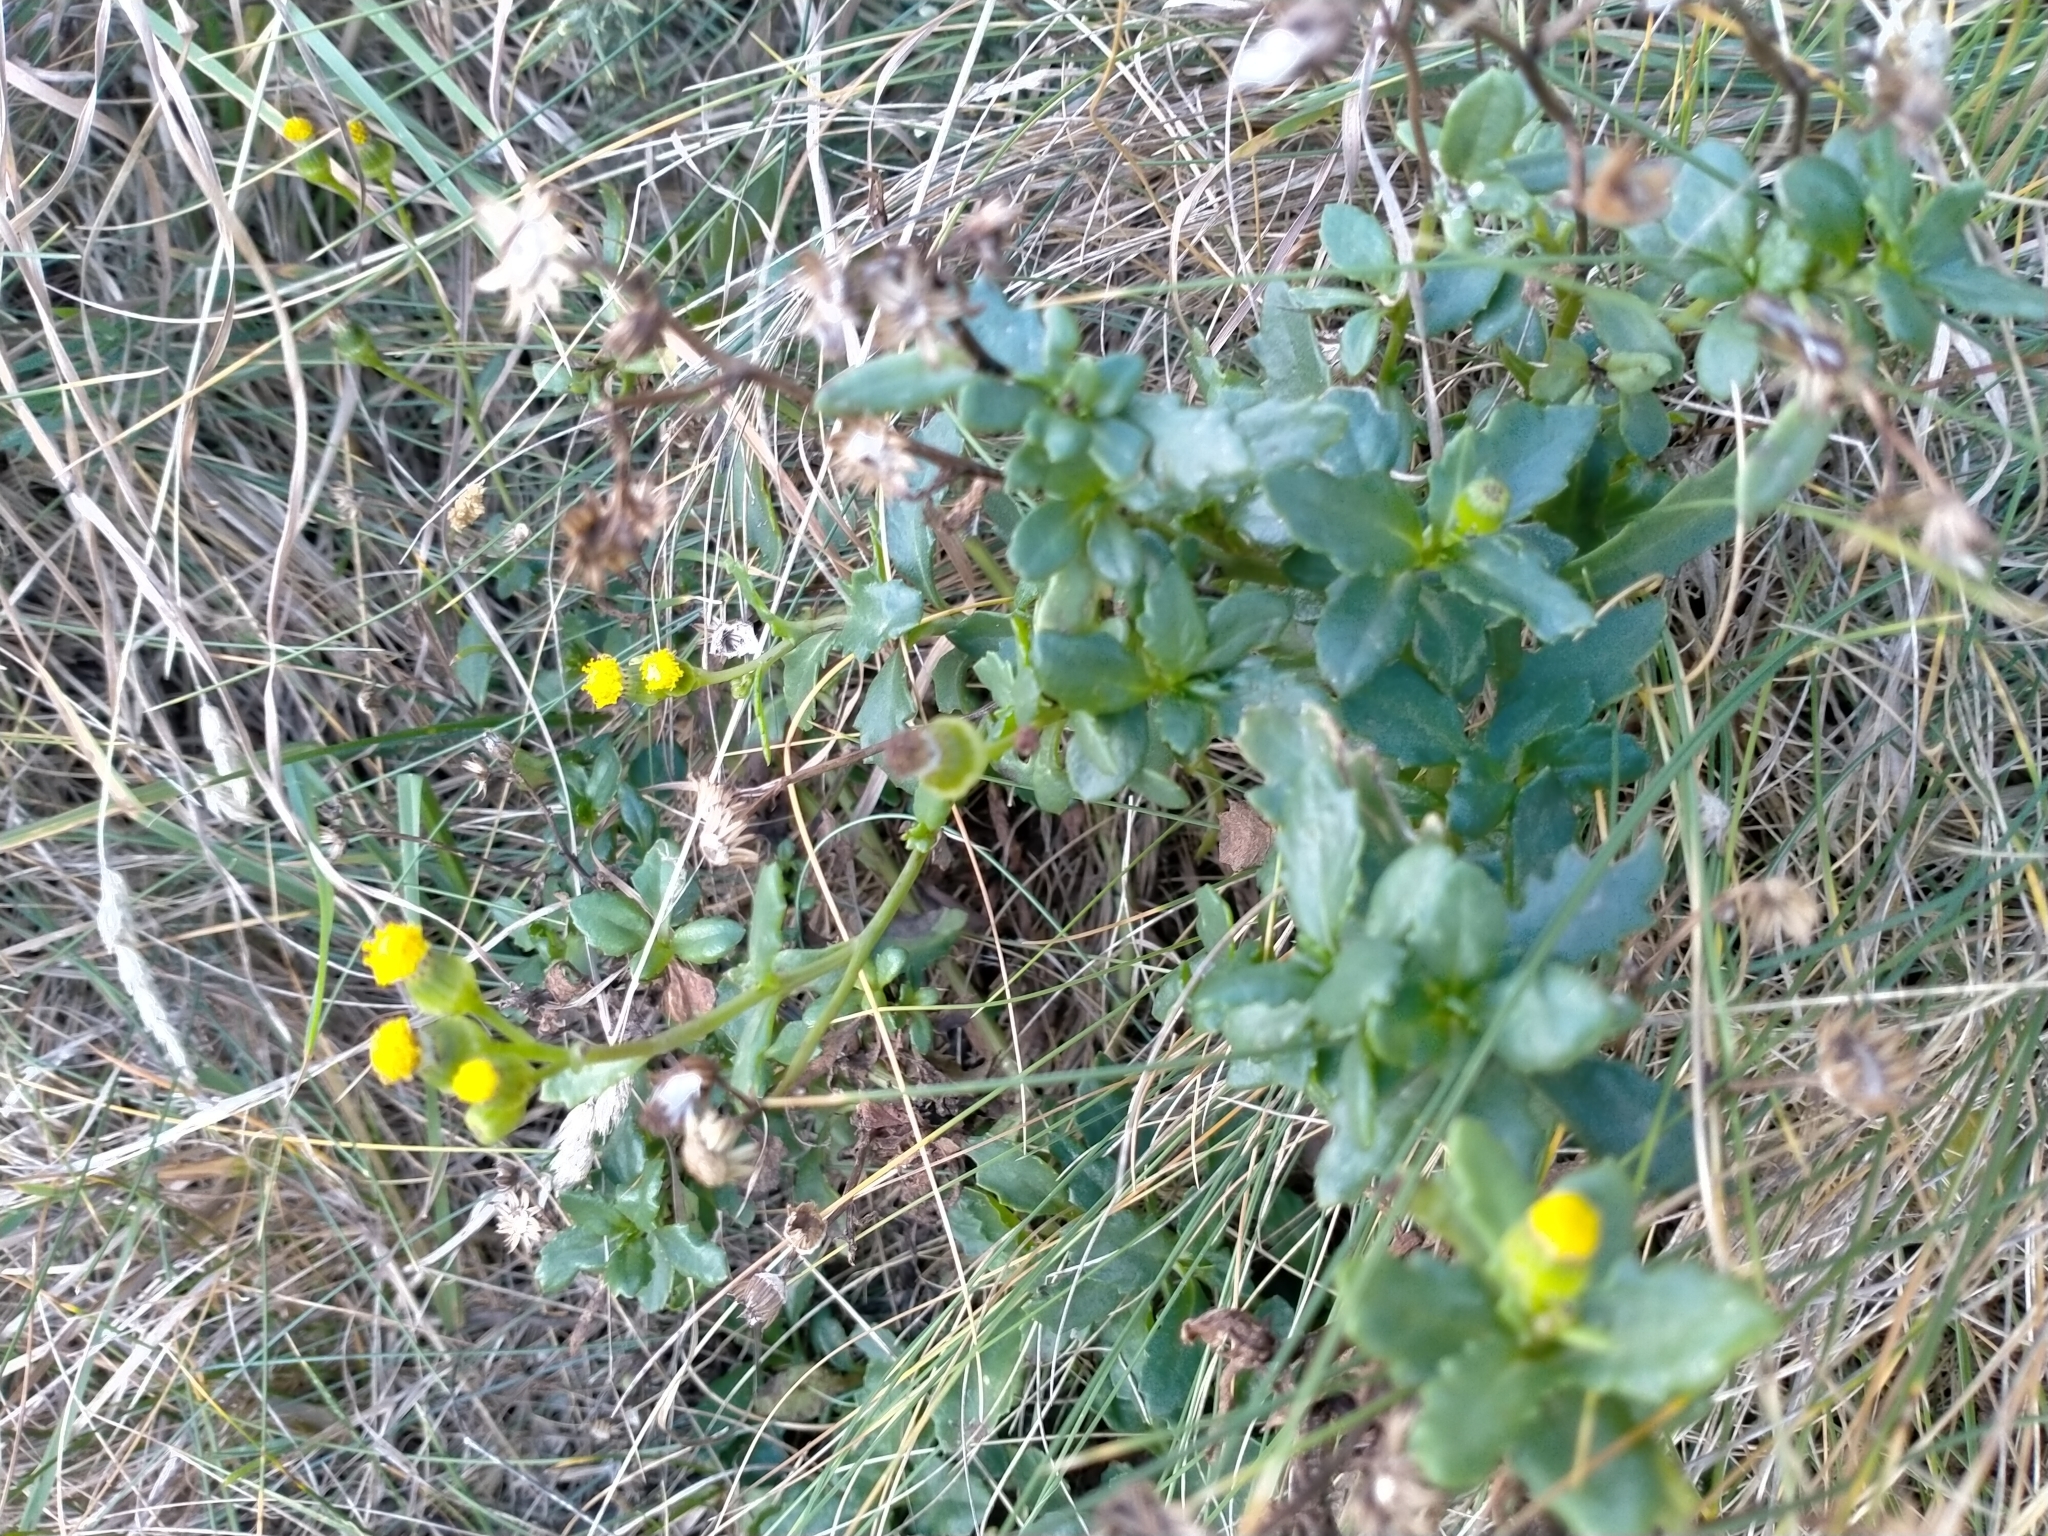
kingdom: Plantae
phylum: Tracheophyta
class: Magnoliopsida
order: Asterales
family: Asteraceae
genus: Senecio
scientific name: Senecio matatini
